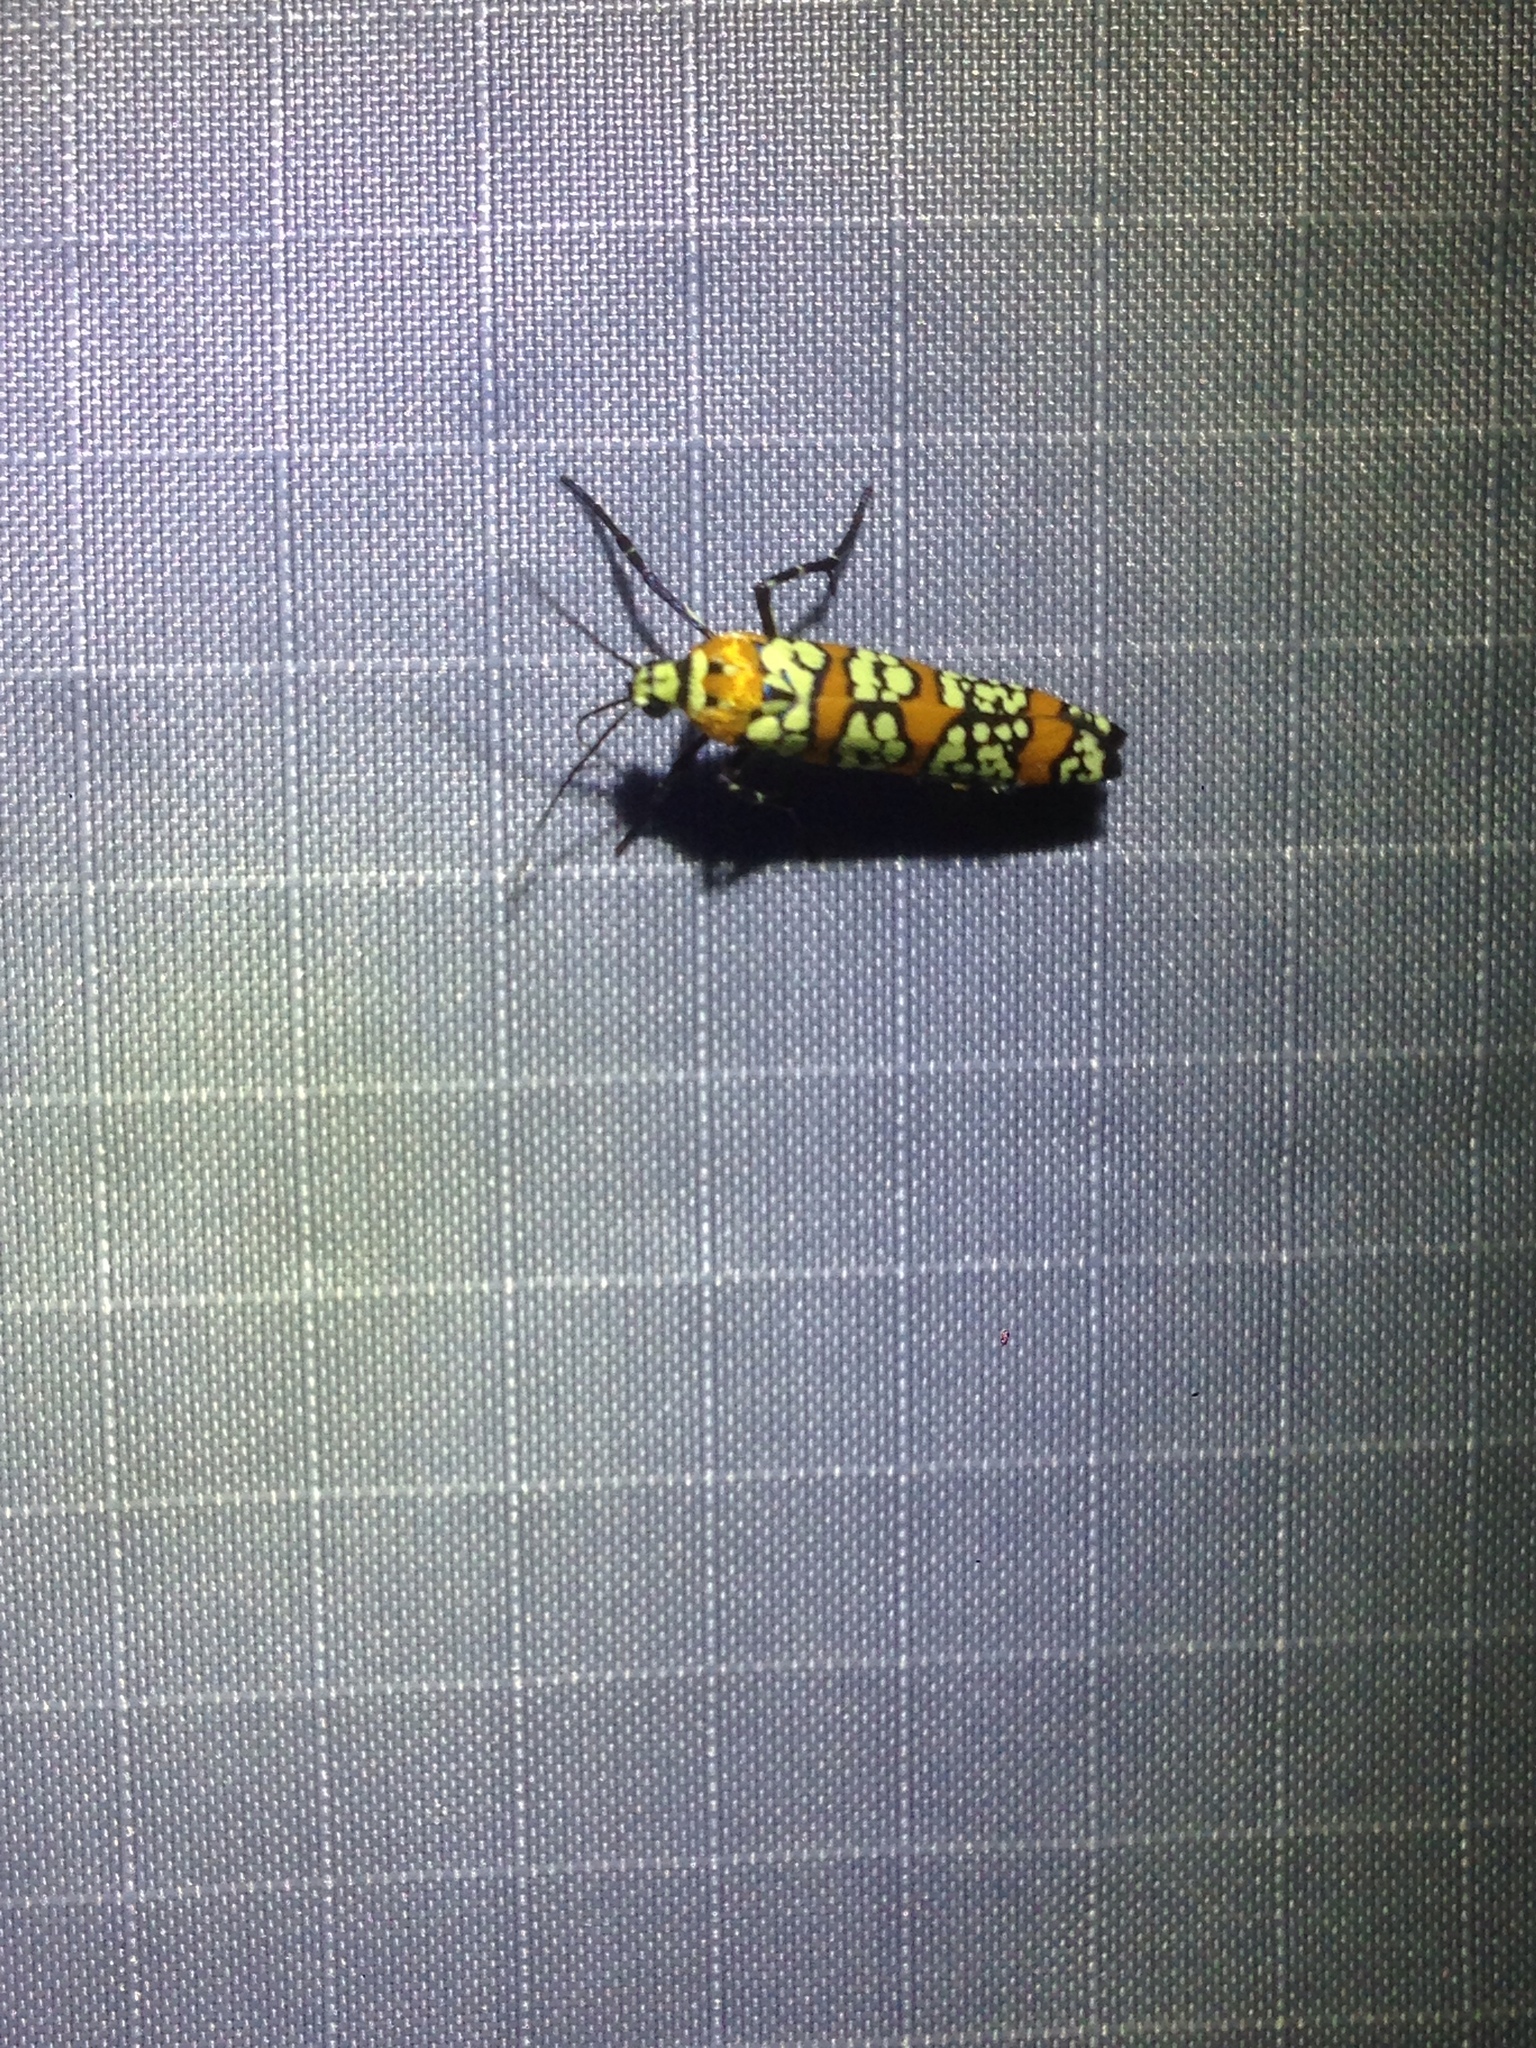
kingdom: Animalia
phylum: Arthropoda
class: Insecta
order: Lepidoptera
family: Attevidae
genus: Atteva
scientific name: Atteva punctella
